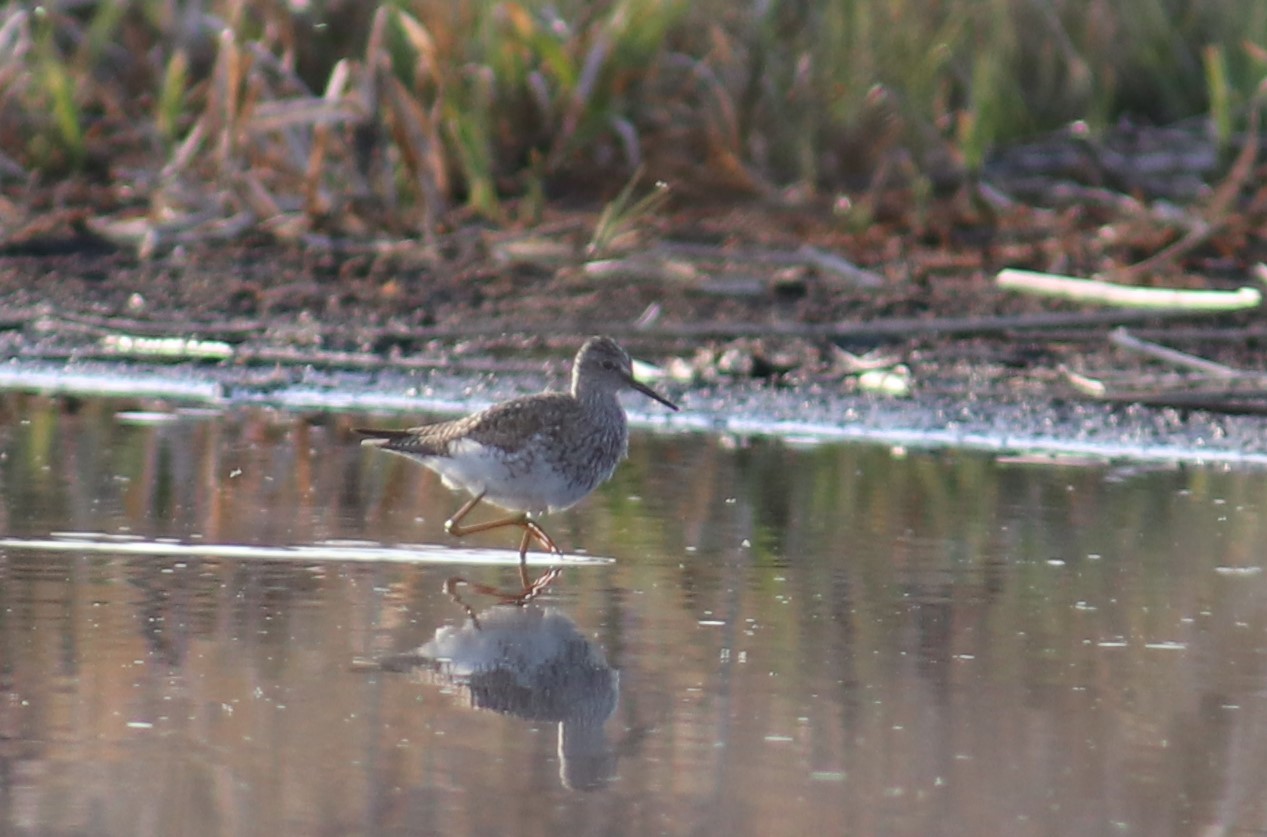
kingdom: Animalia
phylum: Chordata
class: Aves
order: Charadriiformes
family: Scolopacidae
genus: Tringa
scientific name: Tringa flavipes
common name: Lesser yellowlegs
